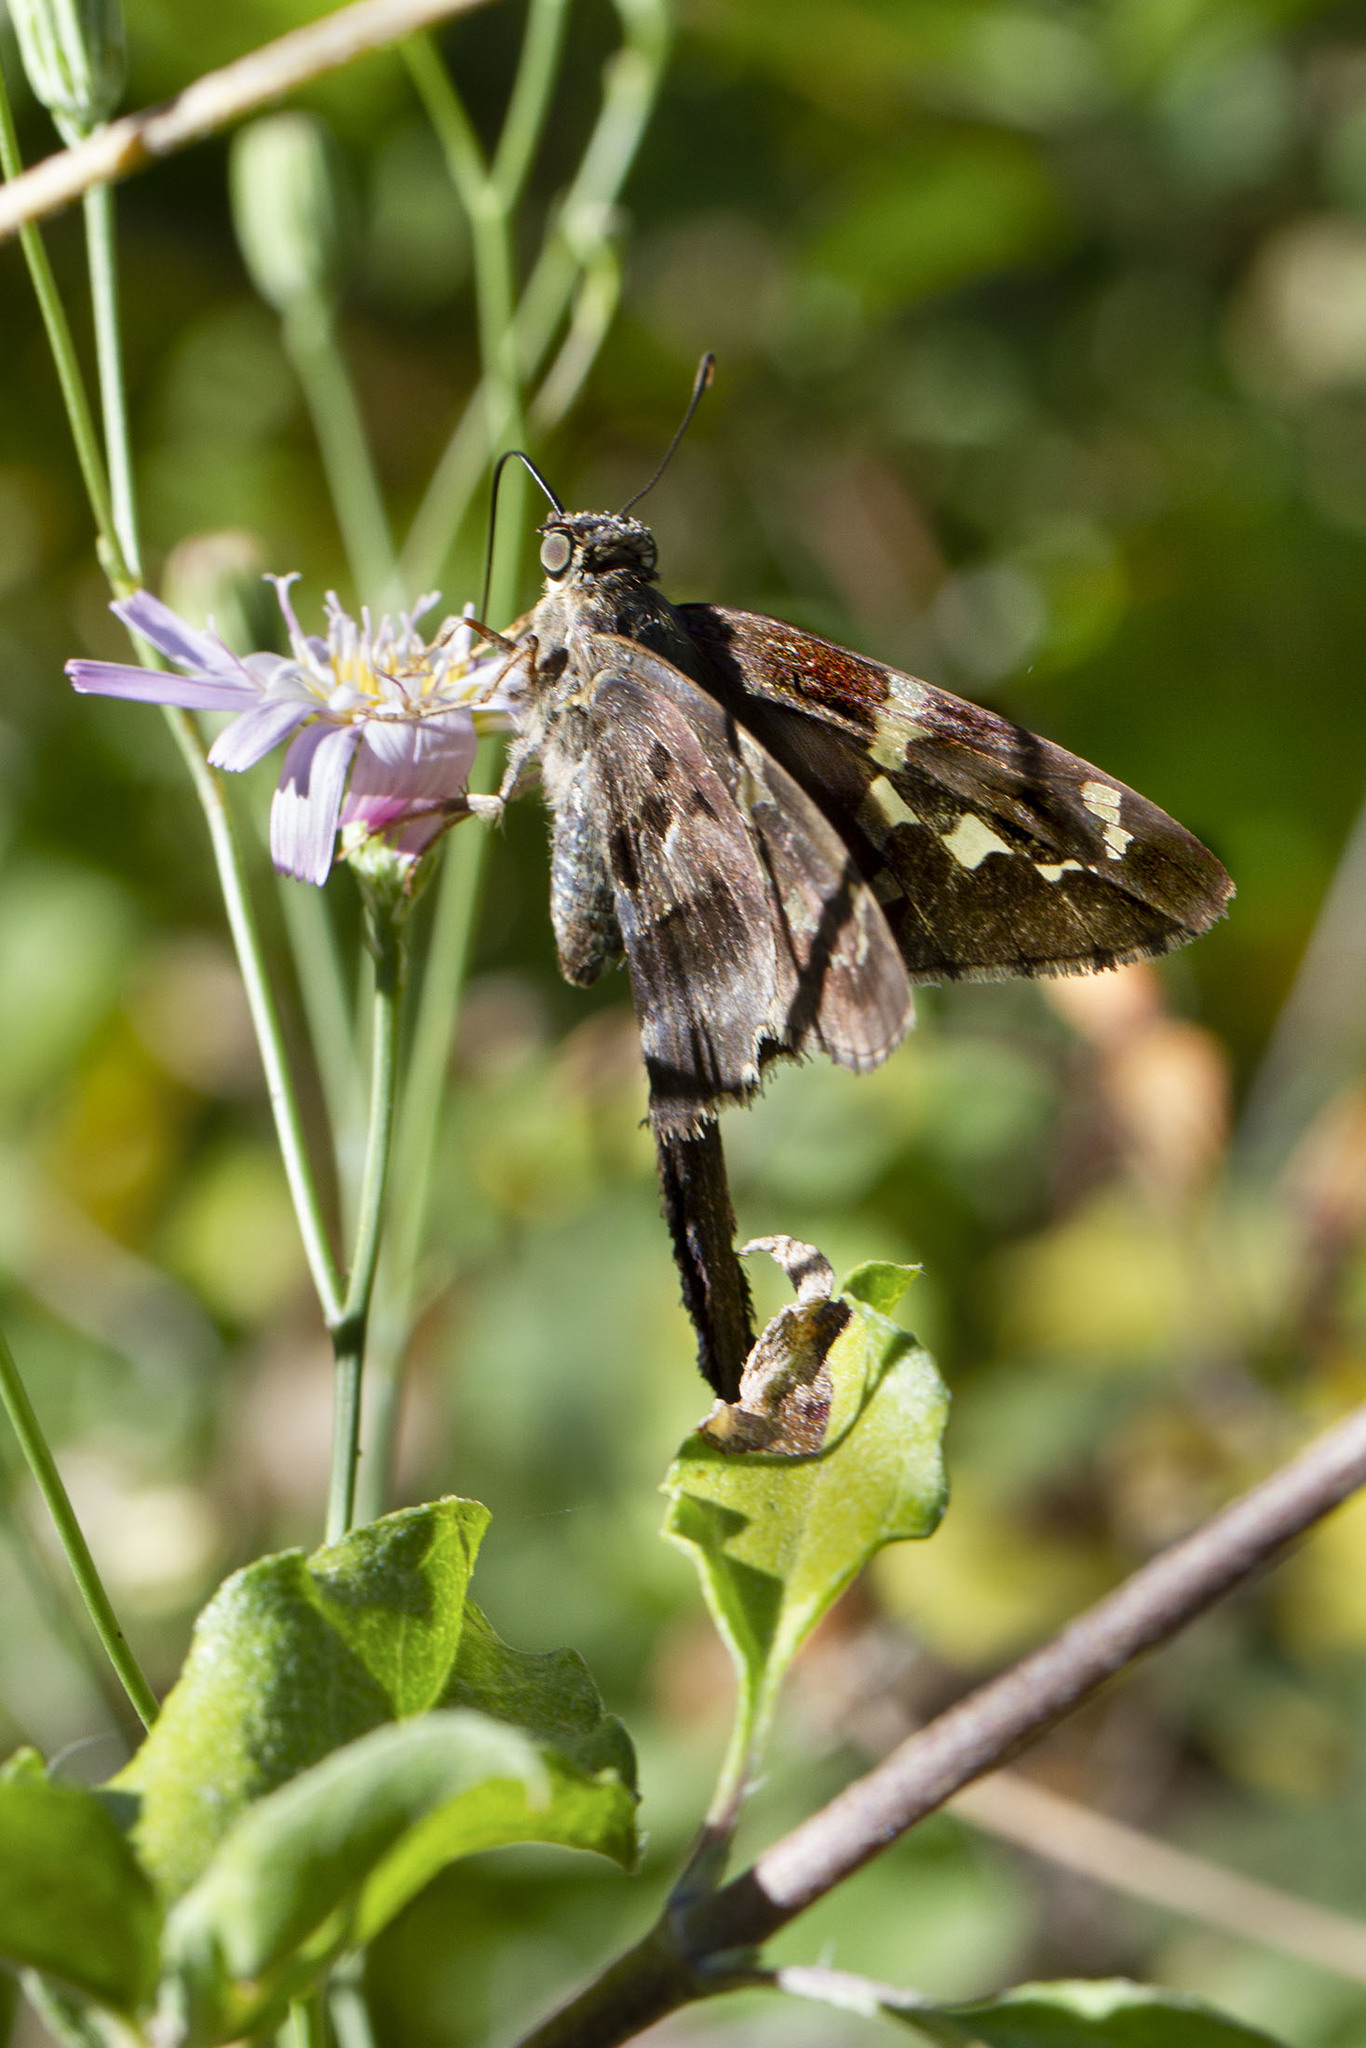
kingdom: Animalia
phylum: Arthropoda
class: Insecta
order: Lepidoptera
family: Hesperiidae
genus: Urbanus
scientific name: Urbanus proteus
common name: Long-tailed skipper
